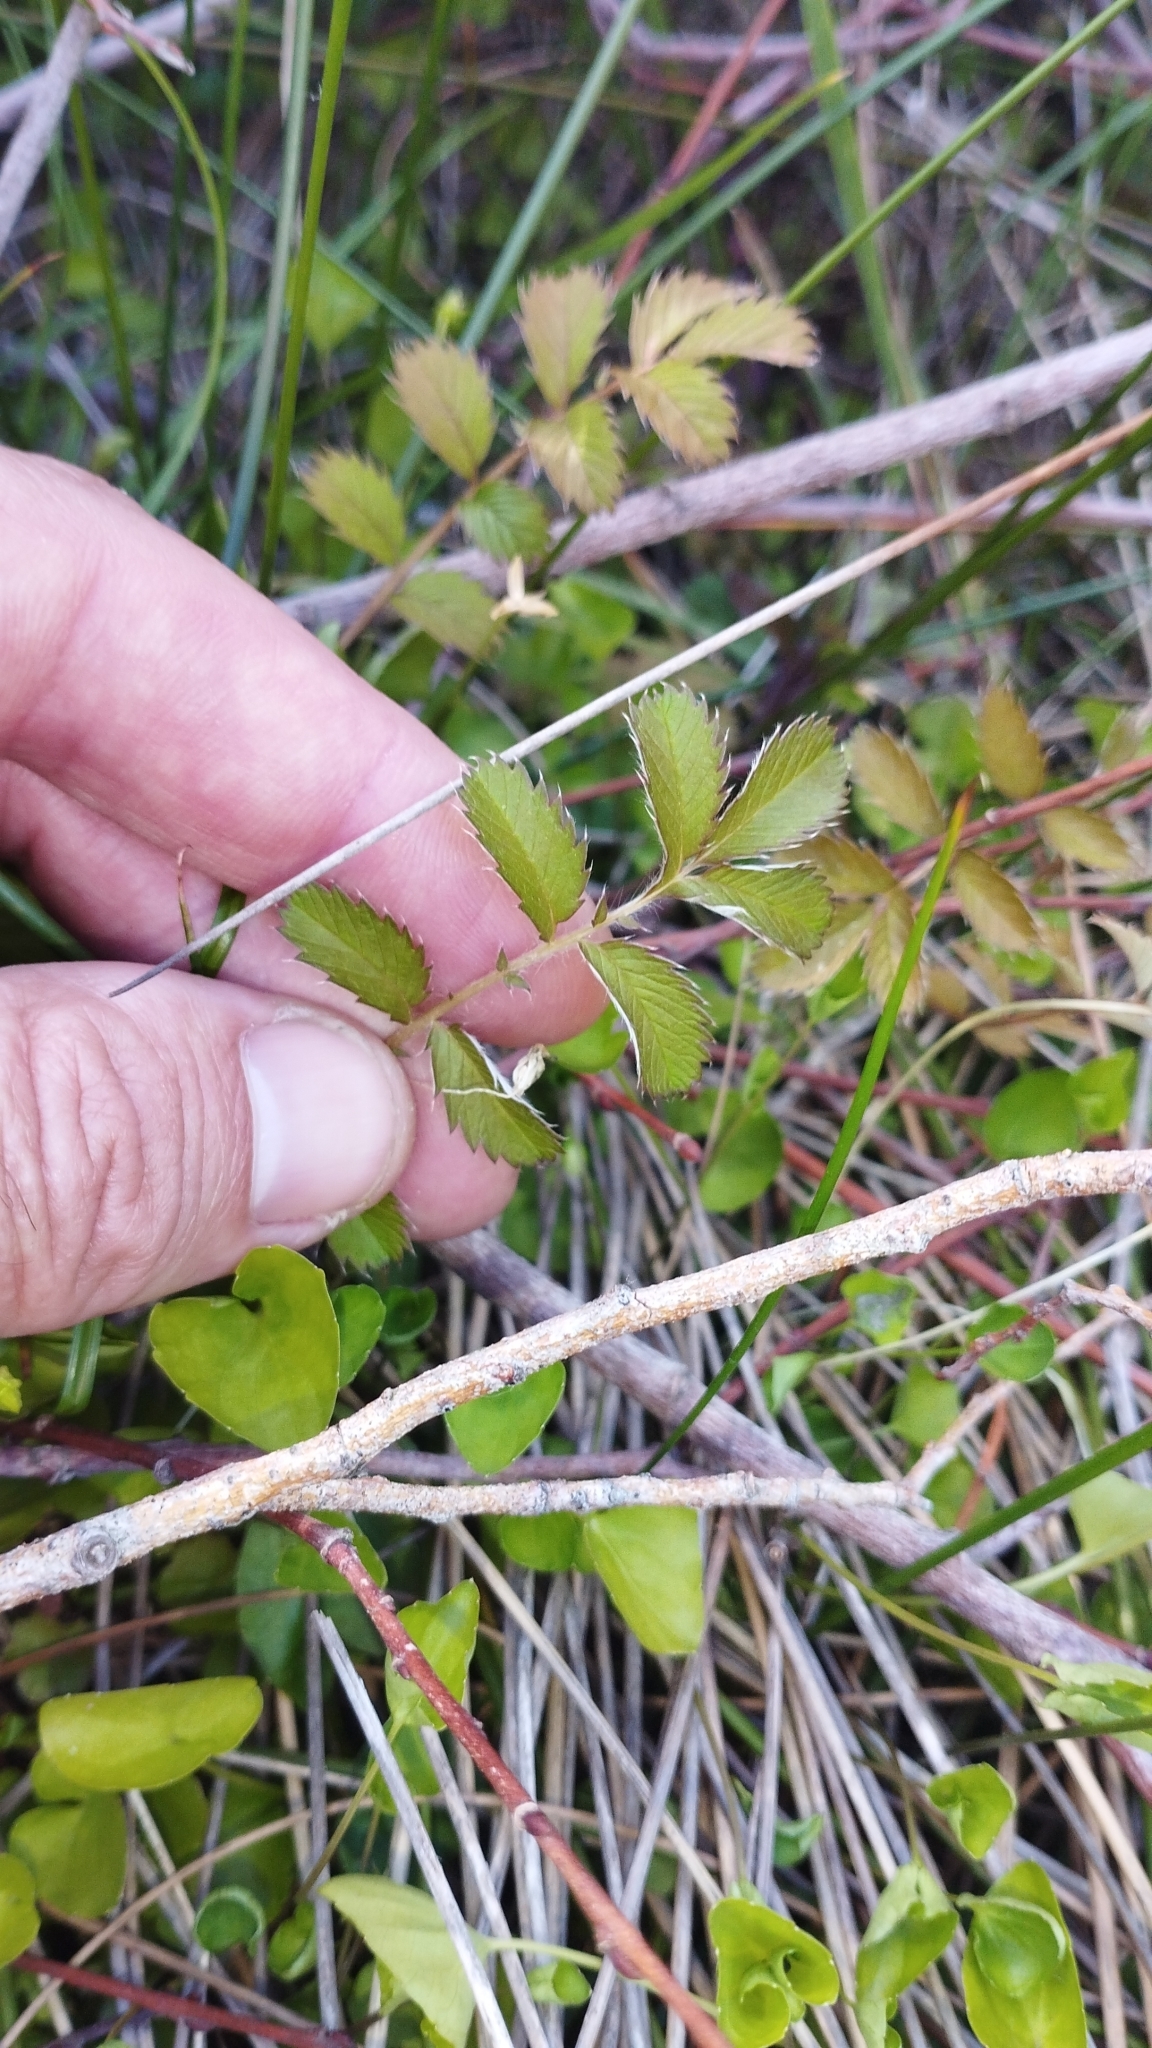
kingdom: Plantae
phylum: Tracheophyta
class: Magnoliopsida
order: Rosales
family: Rosaceae
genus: Argentina
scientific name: Argentina anserinoides
